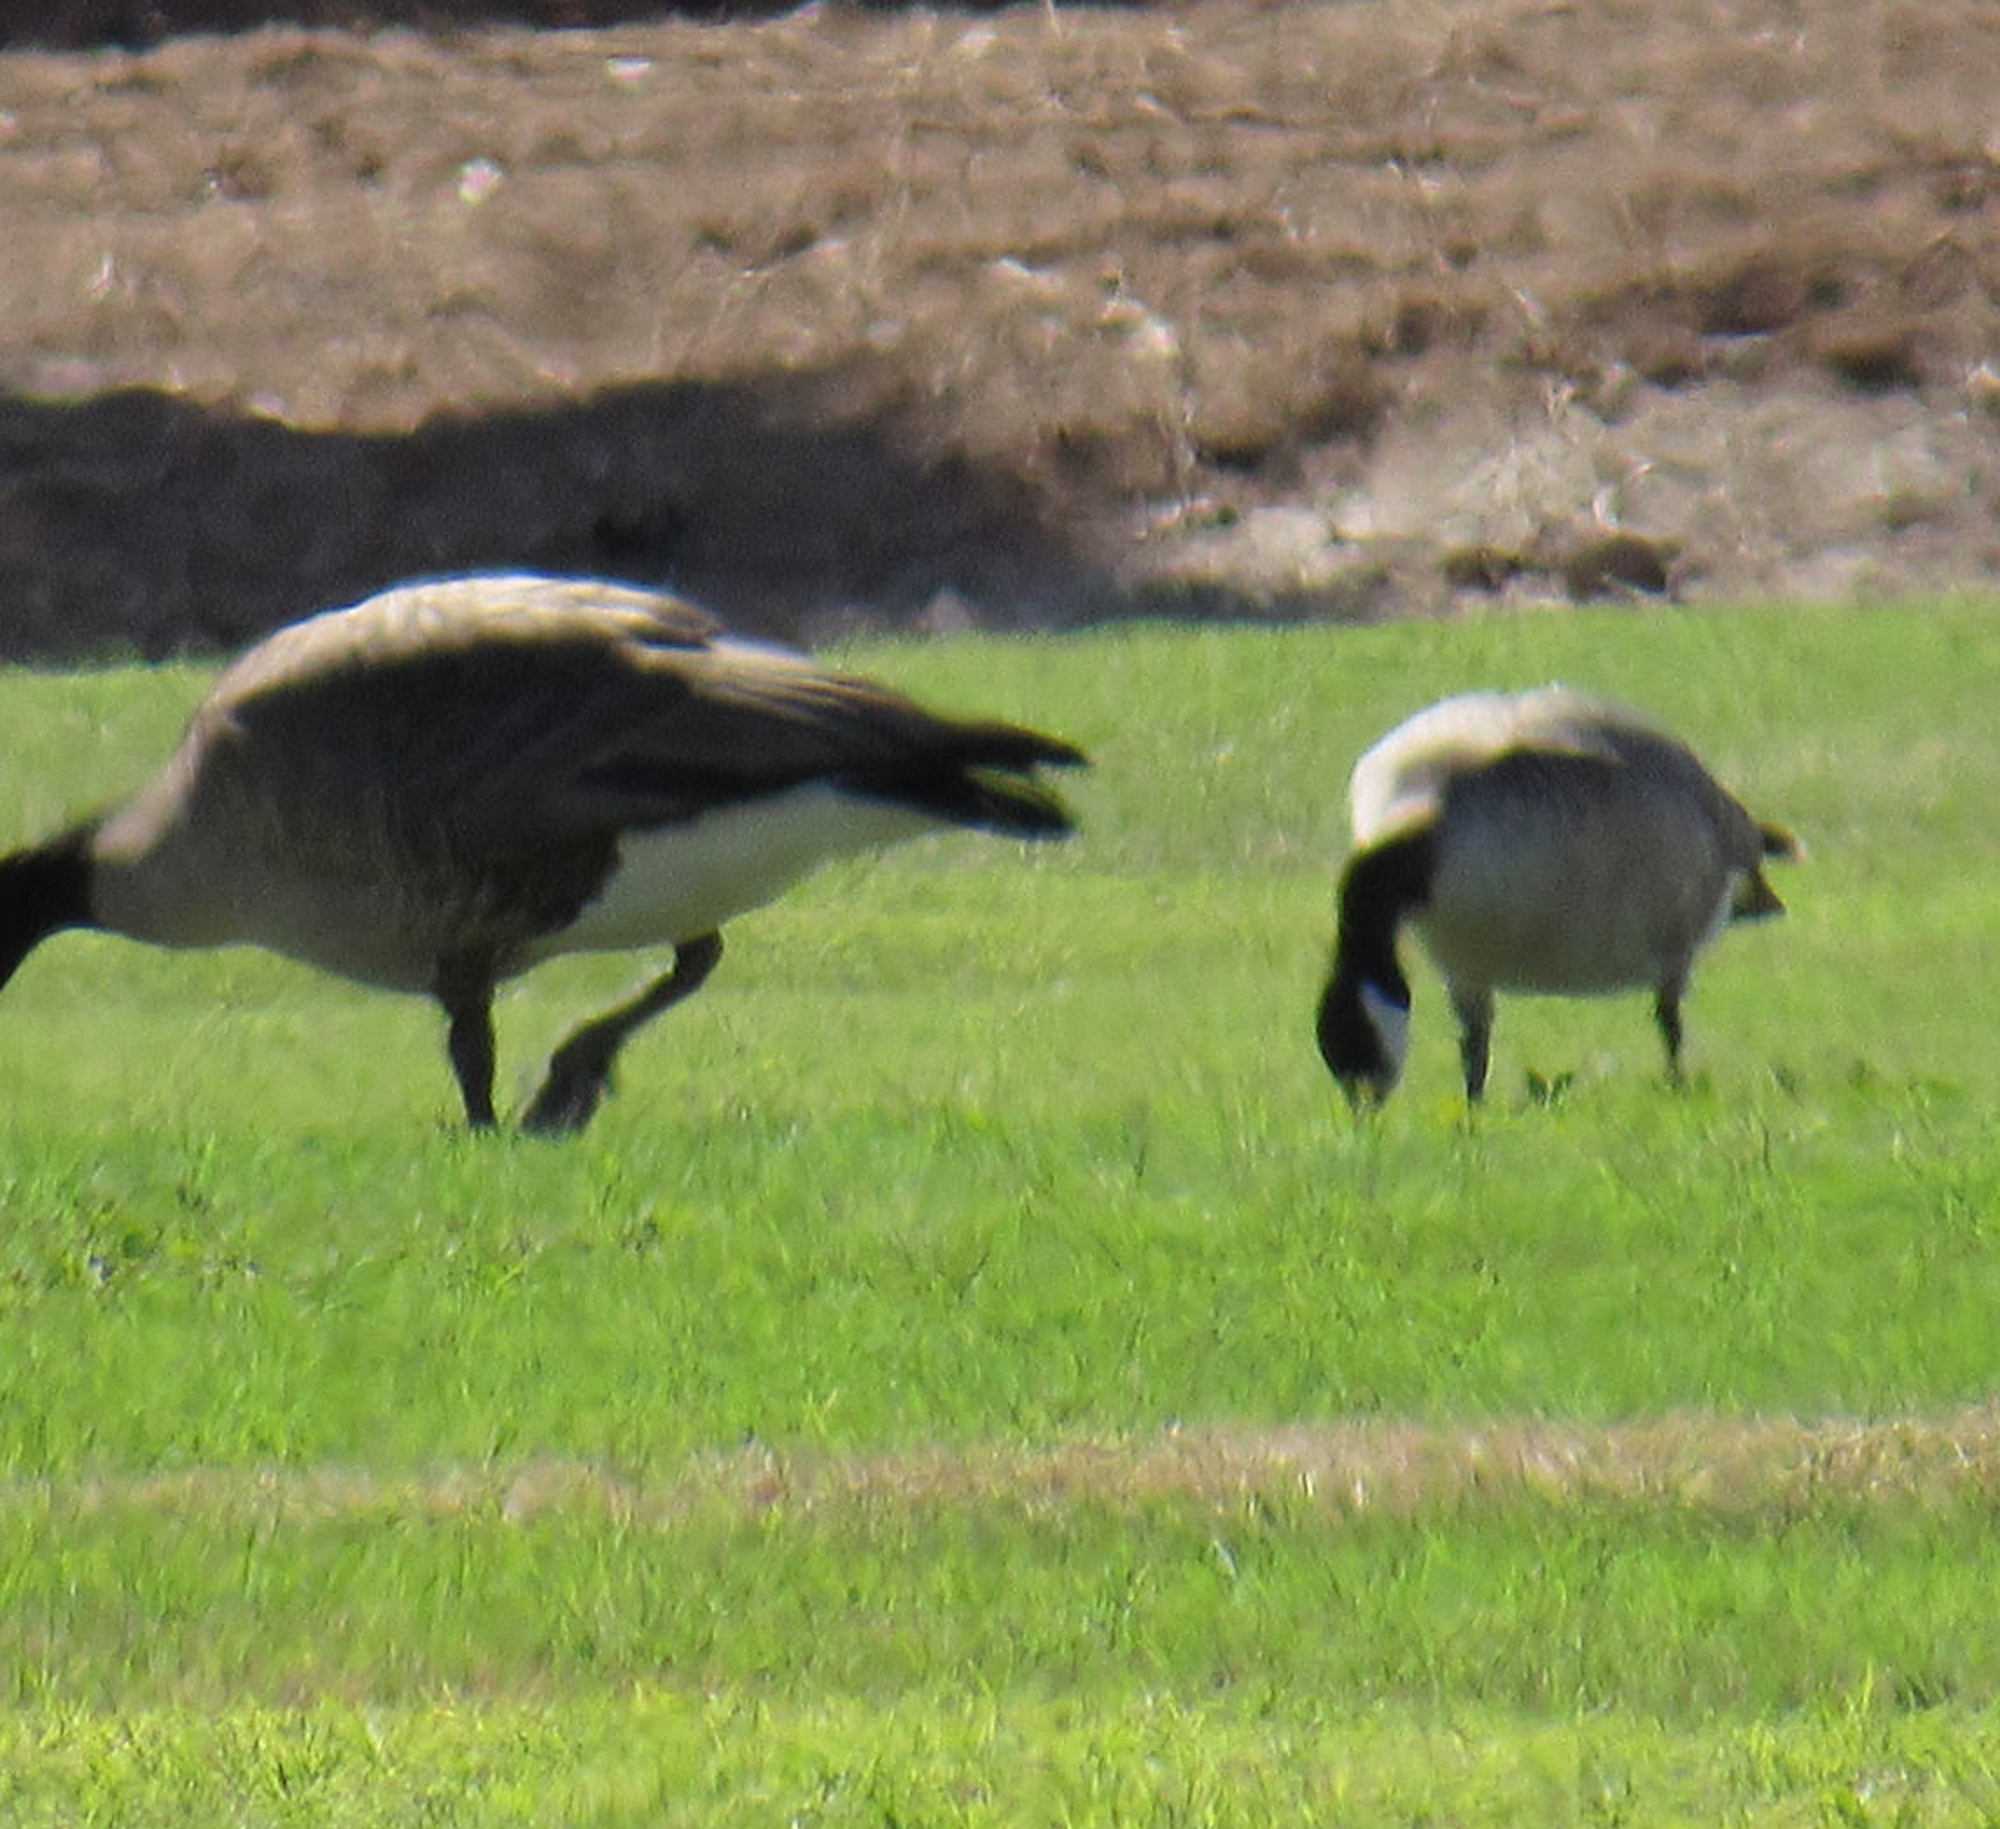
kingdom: Animalia
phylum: Chordata
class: Aves
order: Anseriformes
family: Anatidae
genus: Branta
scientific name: Branta hutchinsii
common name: Cackling goose
